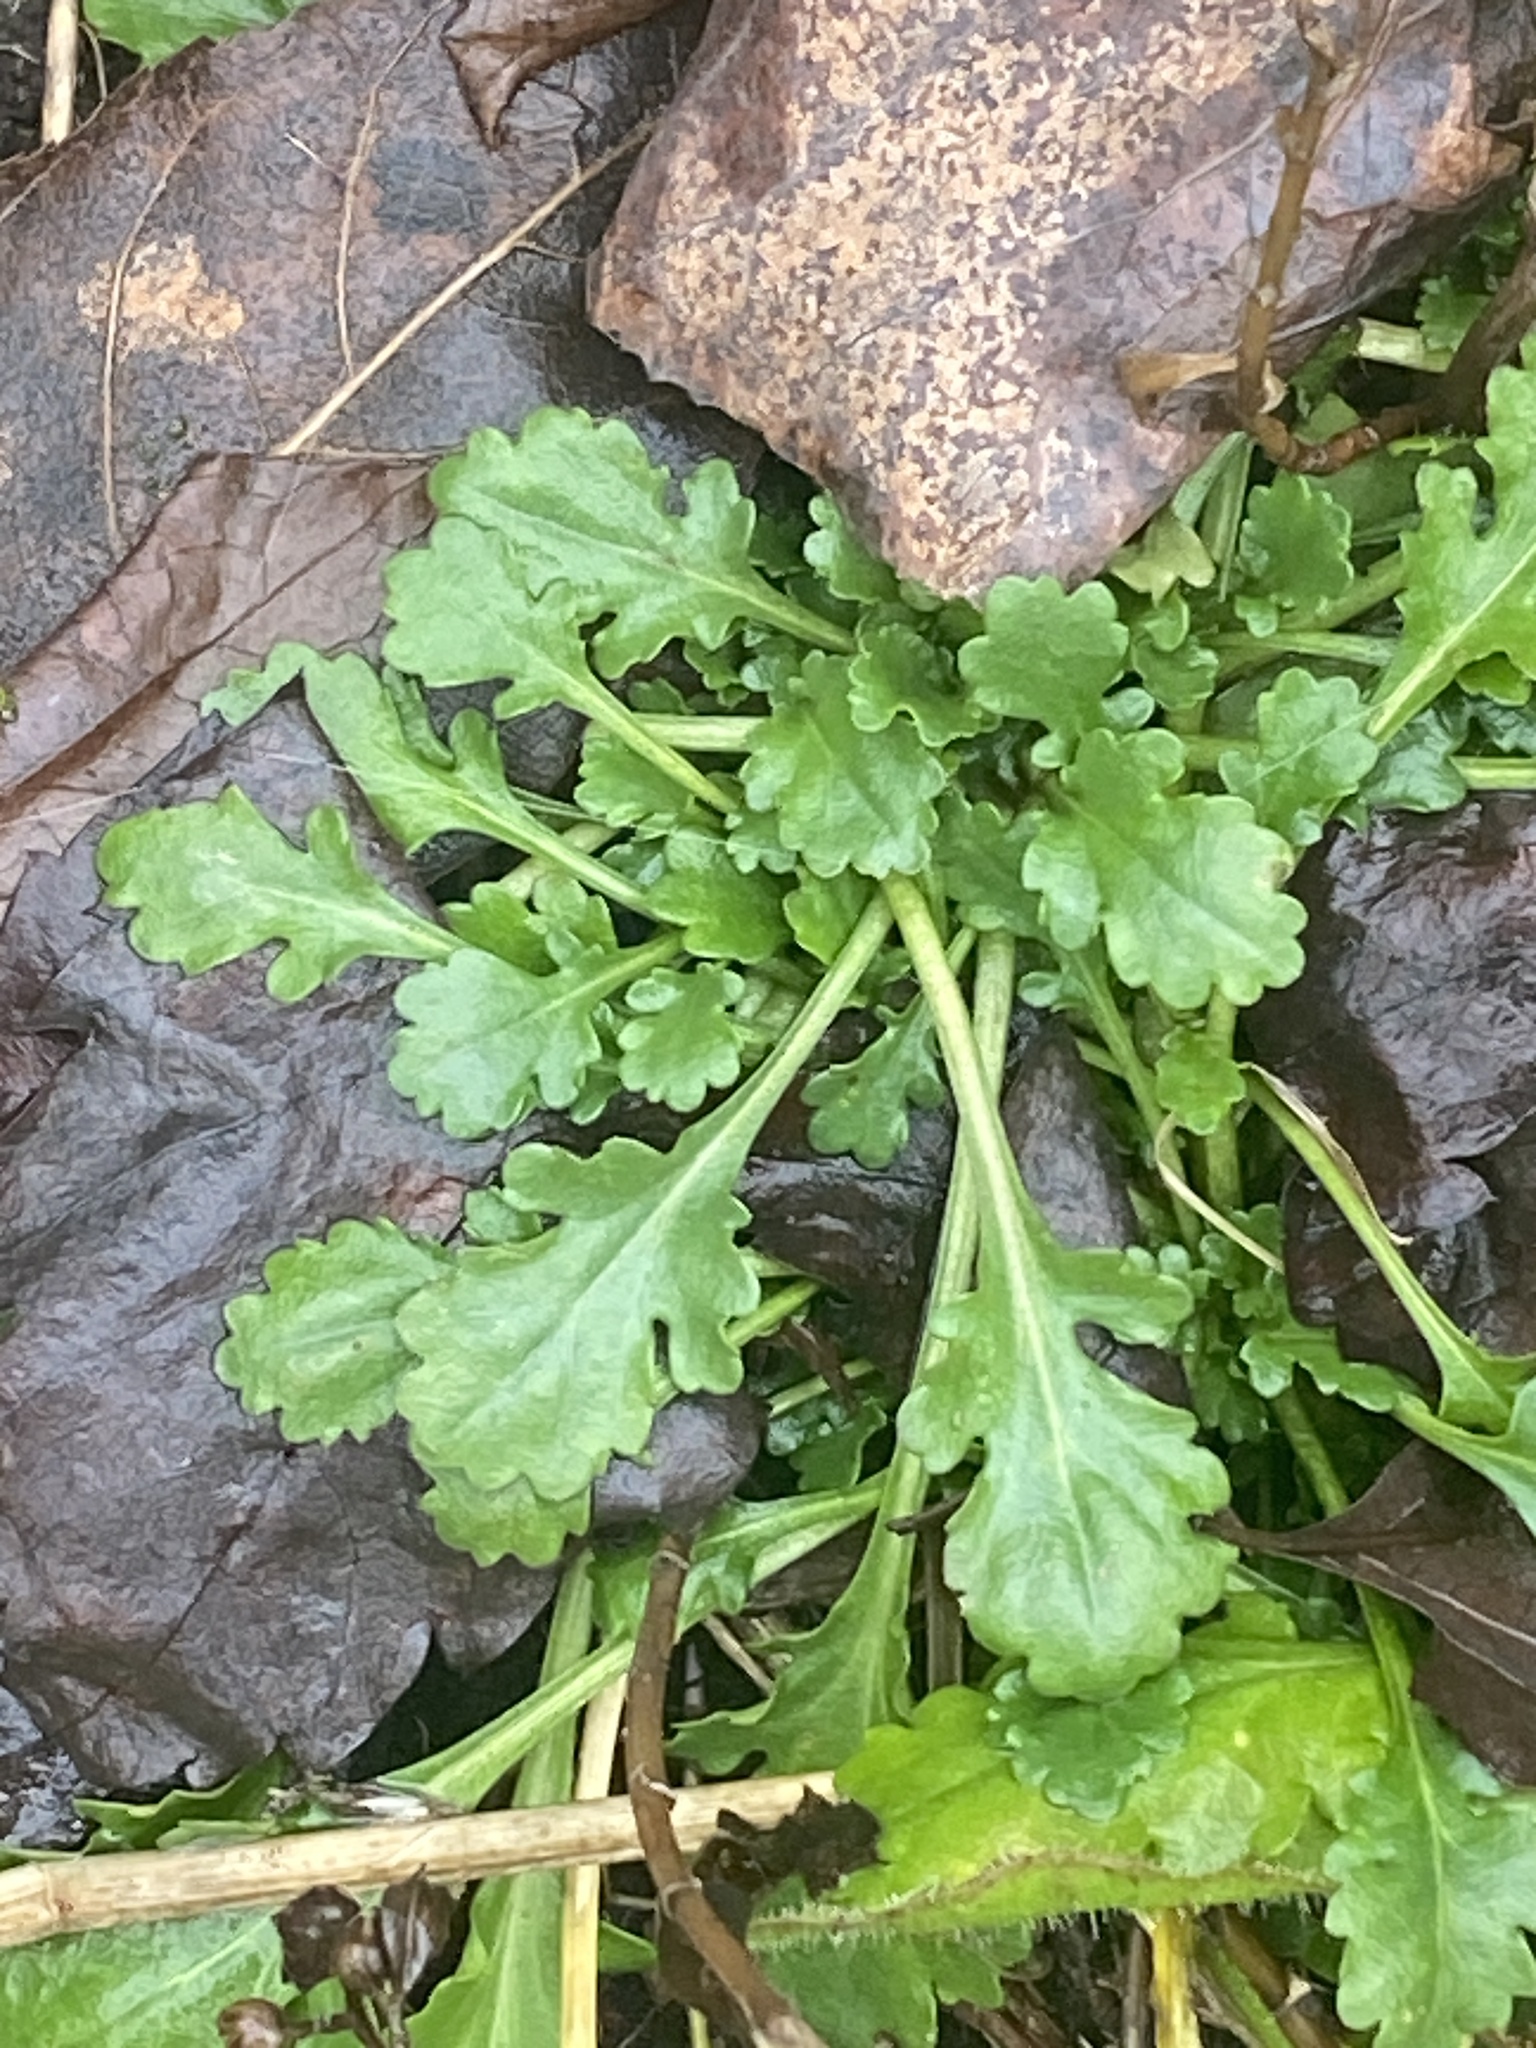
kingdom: Plantae
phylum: Tracheophyta
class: Magnoliopsida
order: Asterales
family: Asteraceae
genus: Leucanthemum
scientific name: Leucanthemum vulgare
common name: Oxeye daisy
